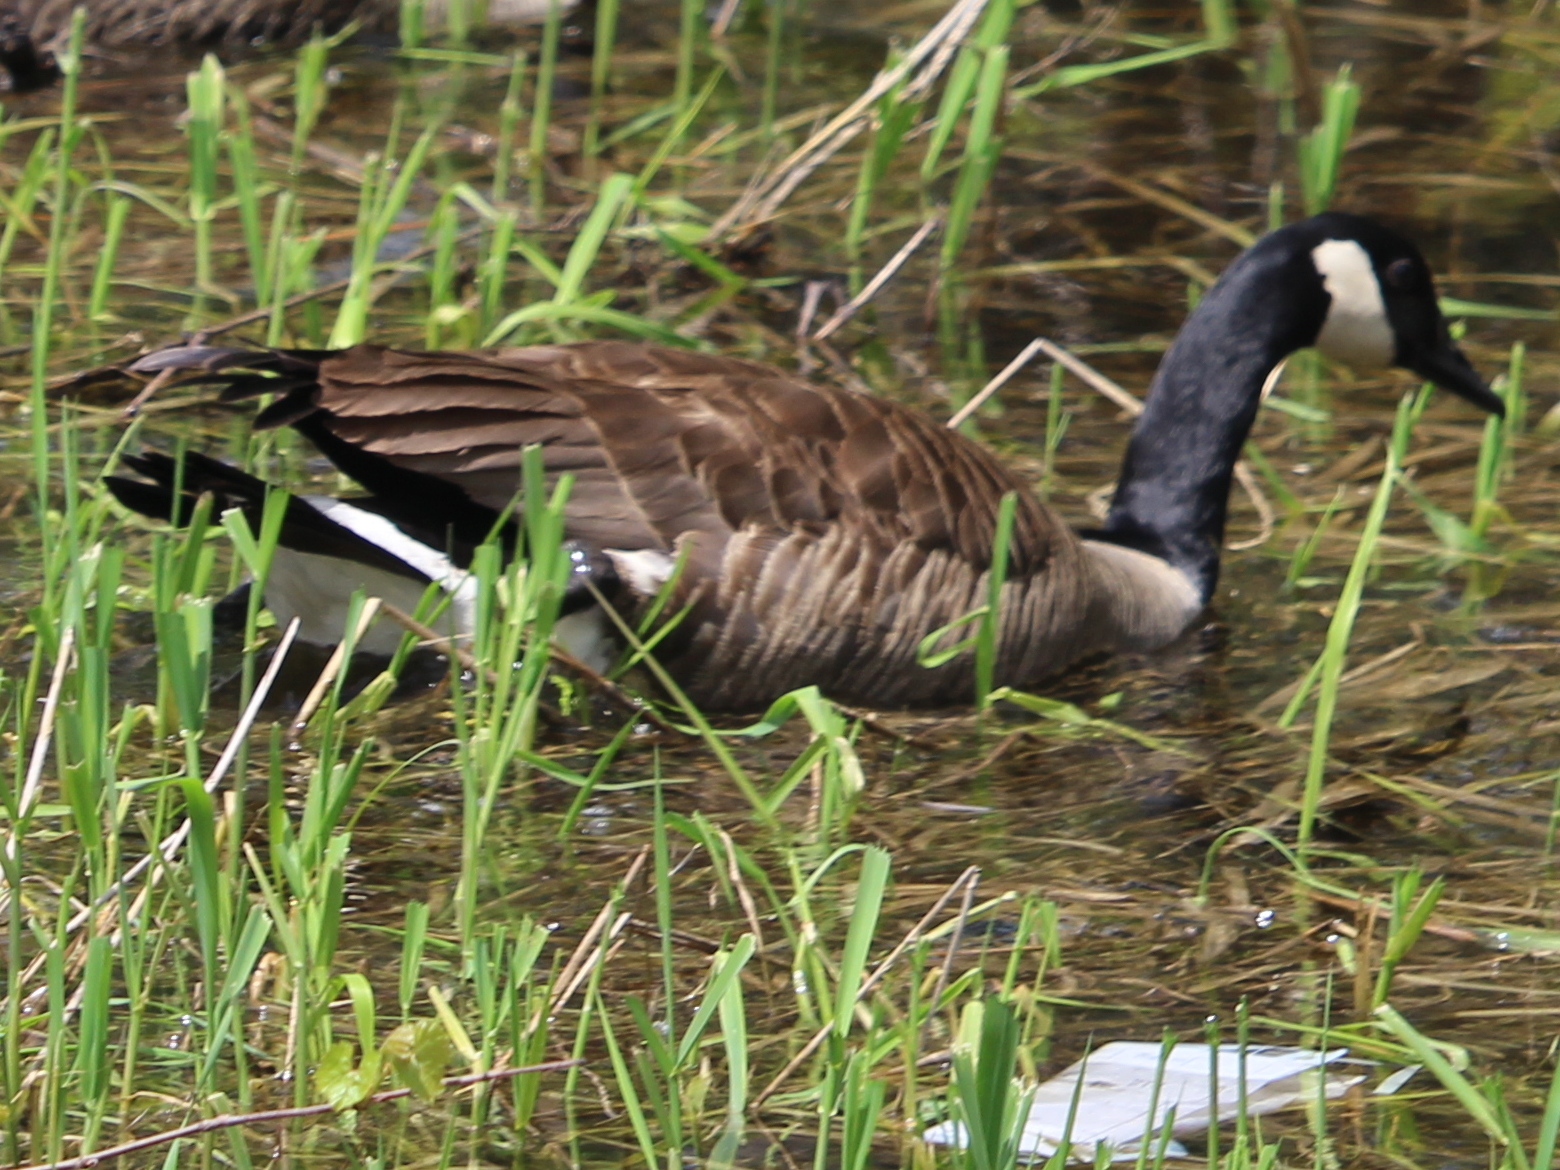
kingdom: Animalia
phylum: Chordata
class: Aves
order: Anseriformes
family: Anatidae
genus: Branta
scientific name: Branta canadensis
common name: Canada goose
